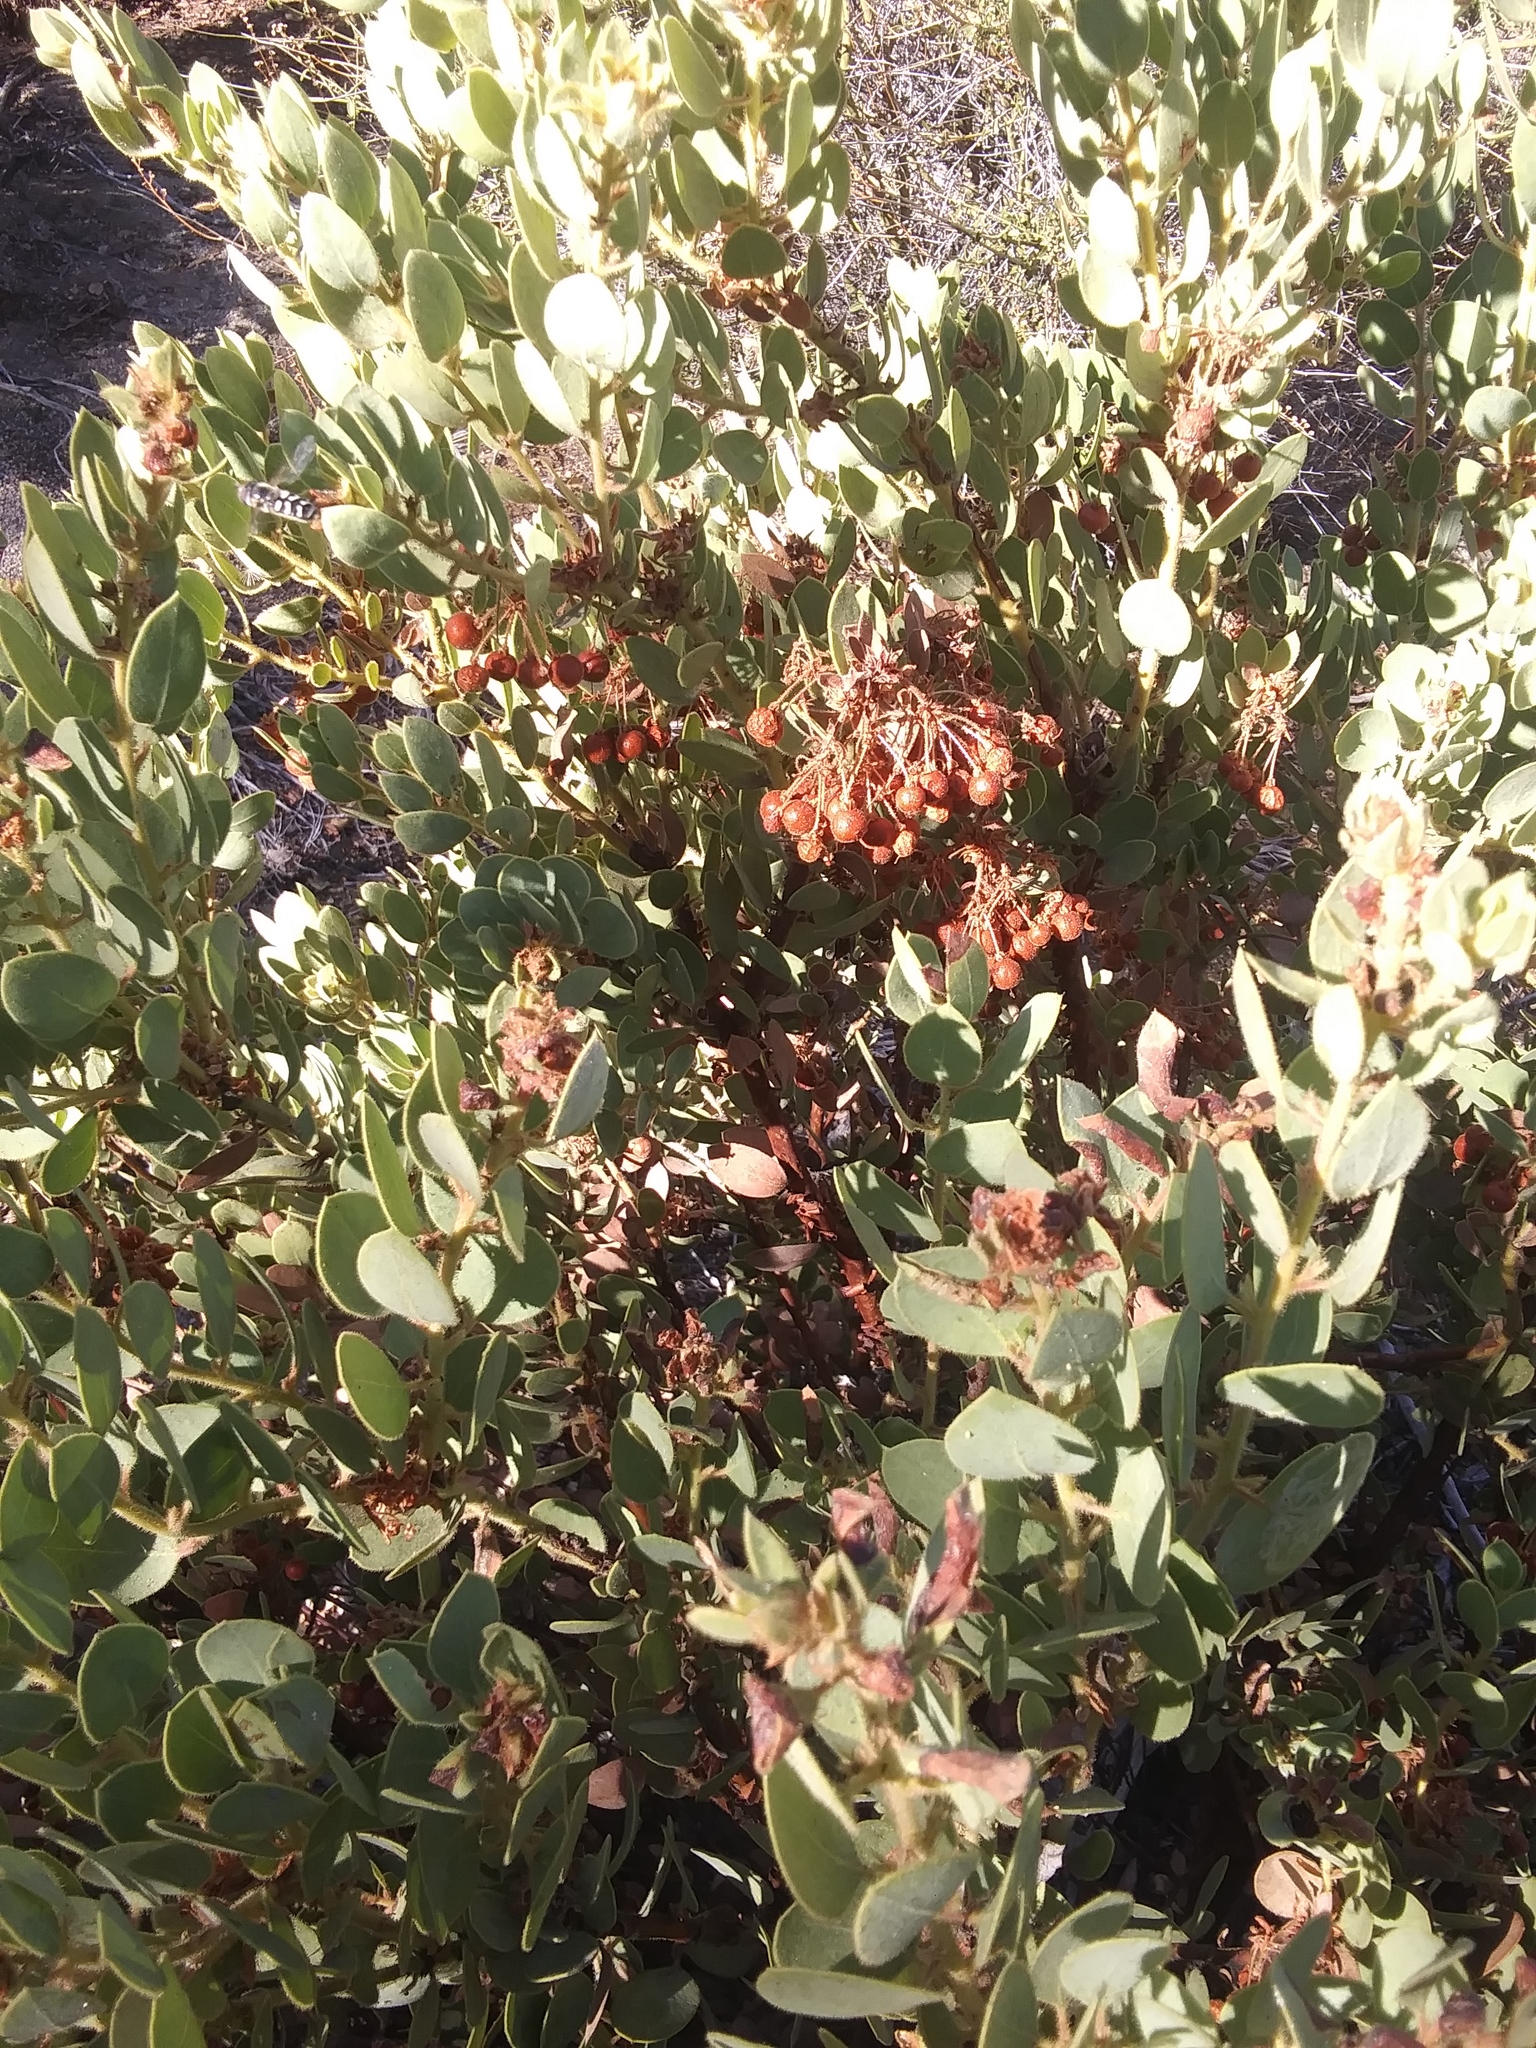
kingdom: Plantae
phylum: Tracheophyta
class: Magnoliopsida
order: Ericales
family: Ericaceae
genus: Arctostaphylos
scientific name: Arctostaphylos pringlei
